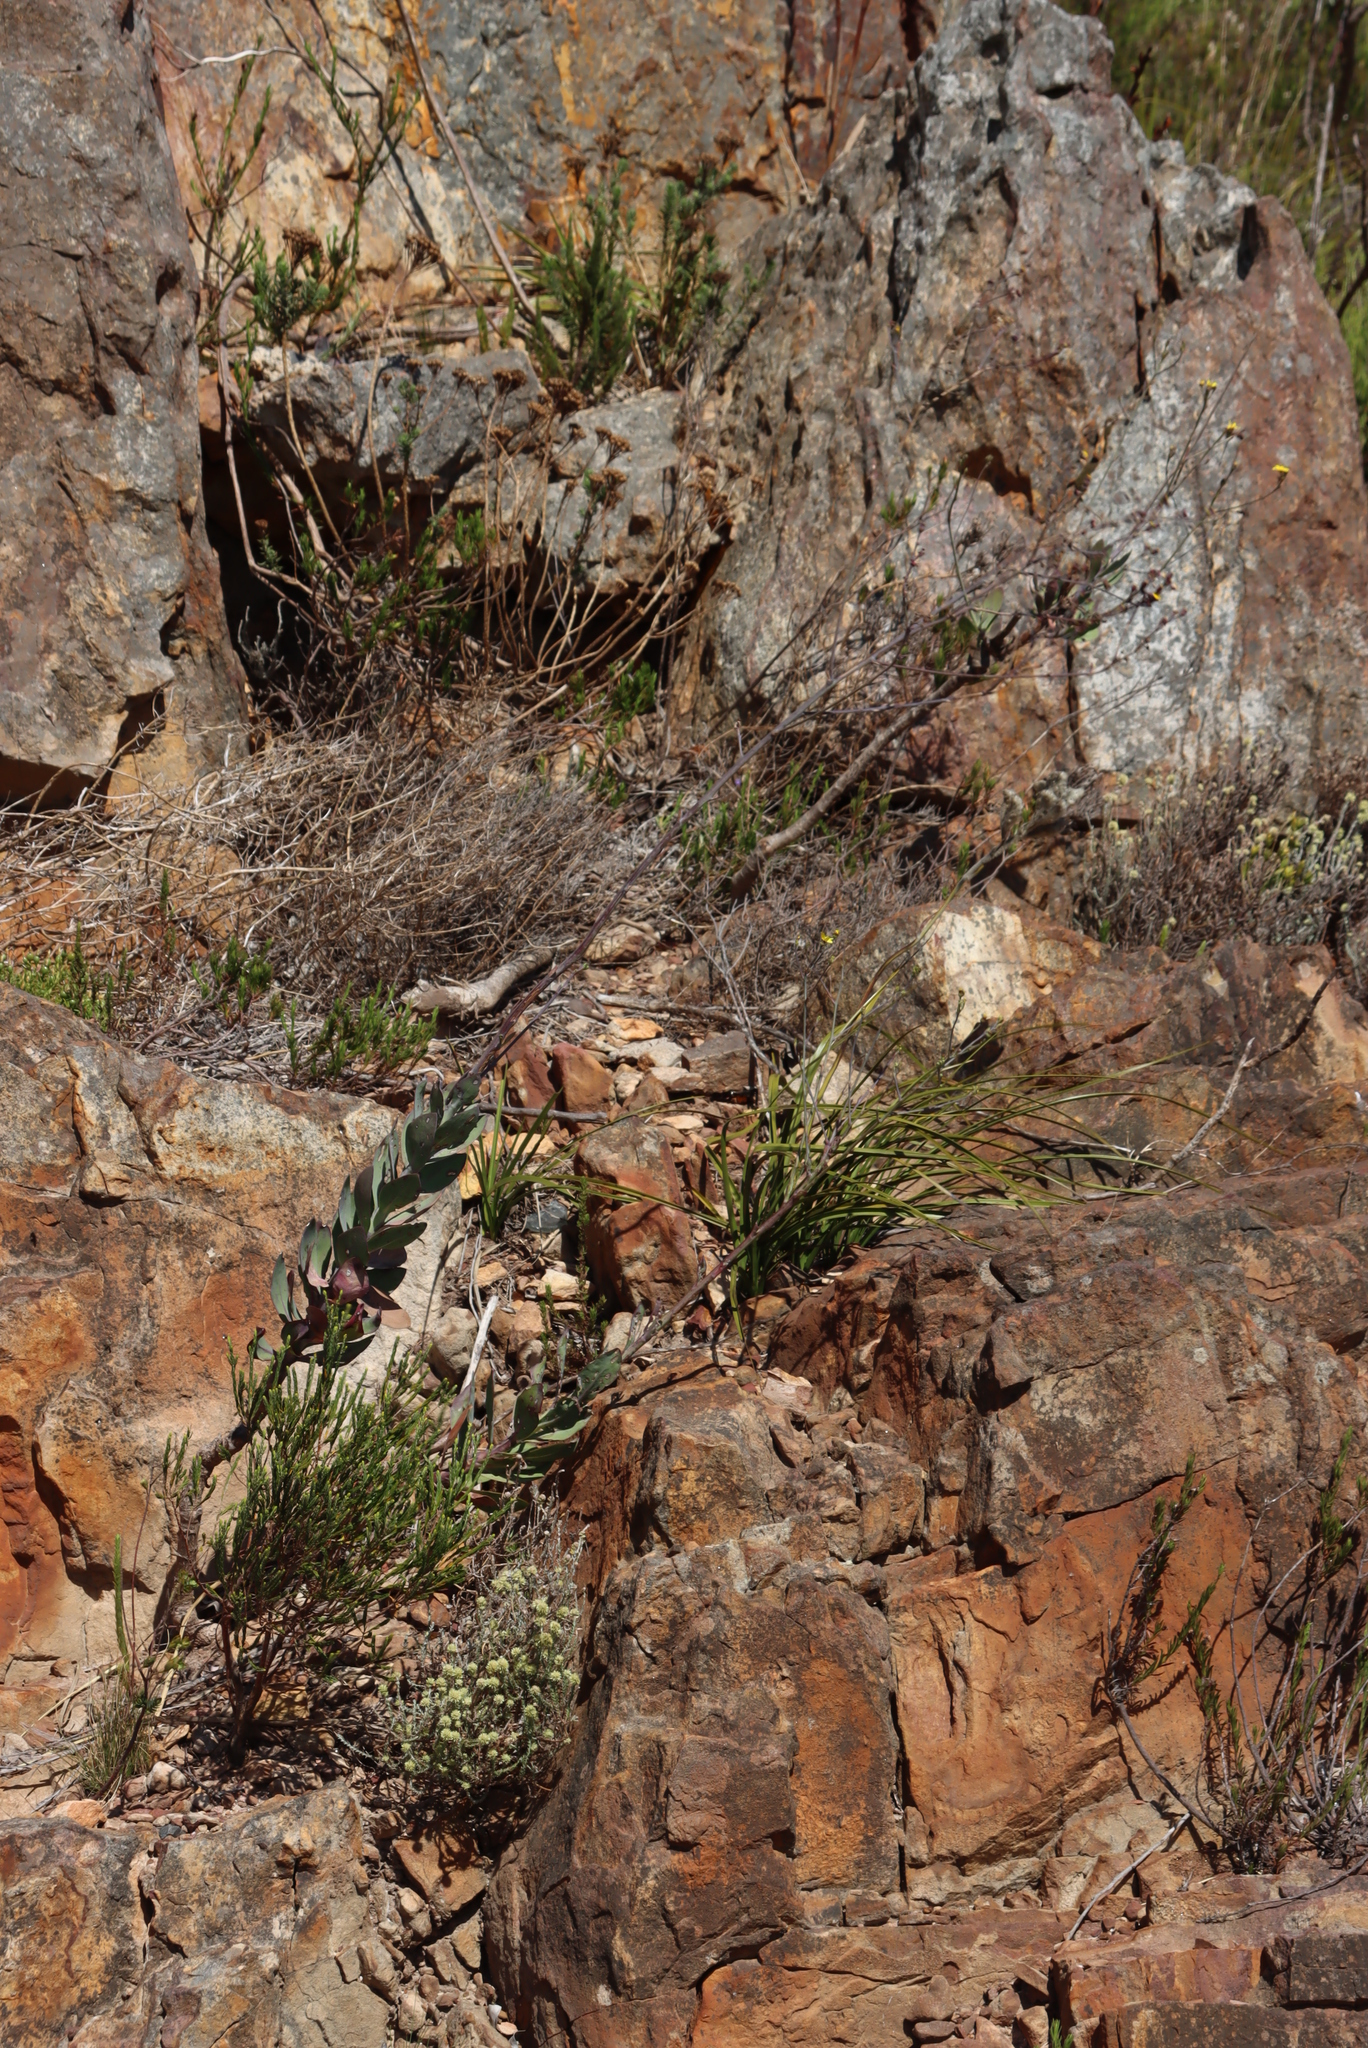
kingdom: Plantae
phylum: Tracheophyta
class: Magnoliopsida
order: Asterales
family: Asteraceae
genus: Othonna
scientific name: Othonna quinquedentata
